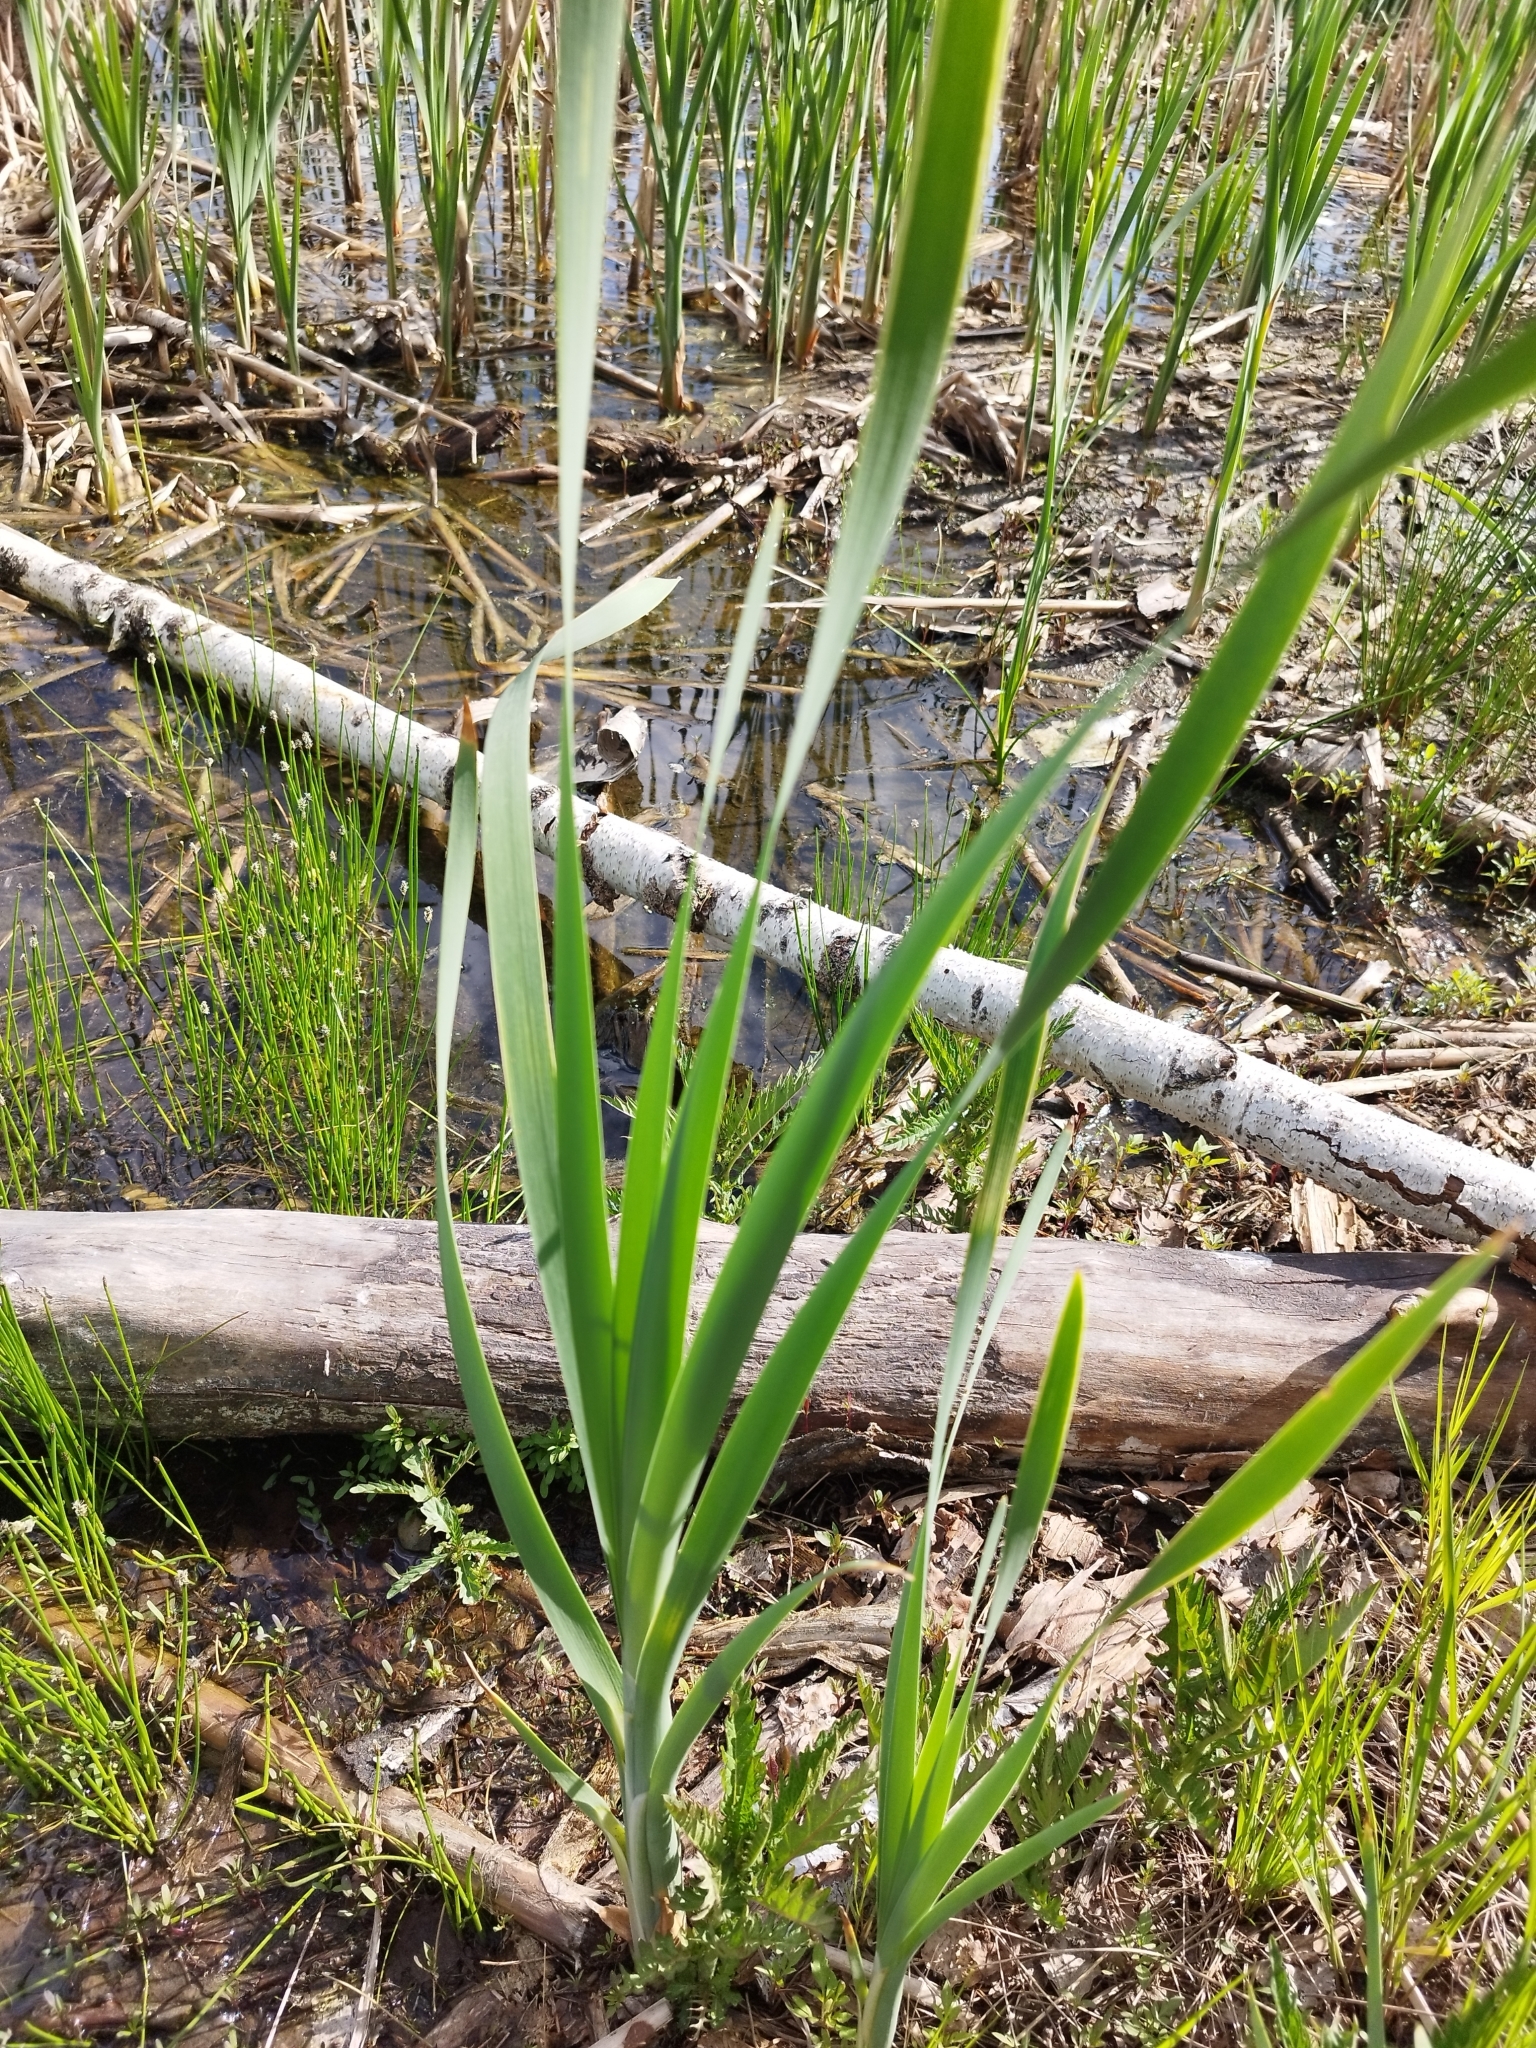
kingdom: Plantae
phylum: Tracheophyta
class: Liliopsida
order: Poales
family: Typhaceae
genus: Typha
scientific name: Typha latifolia
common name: Broadleaf cattail
